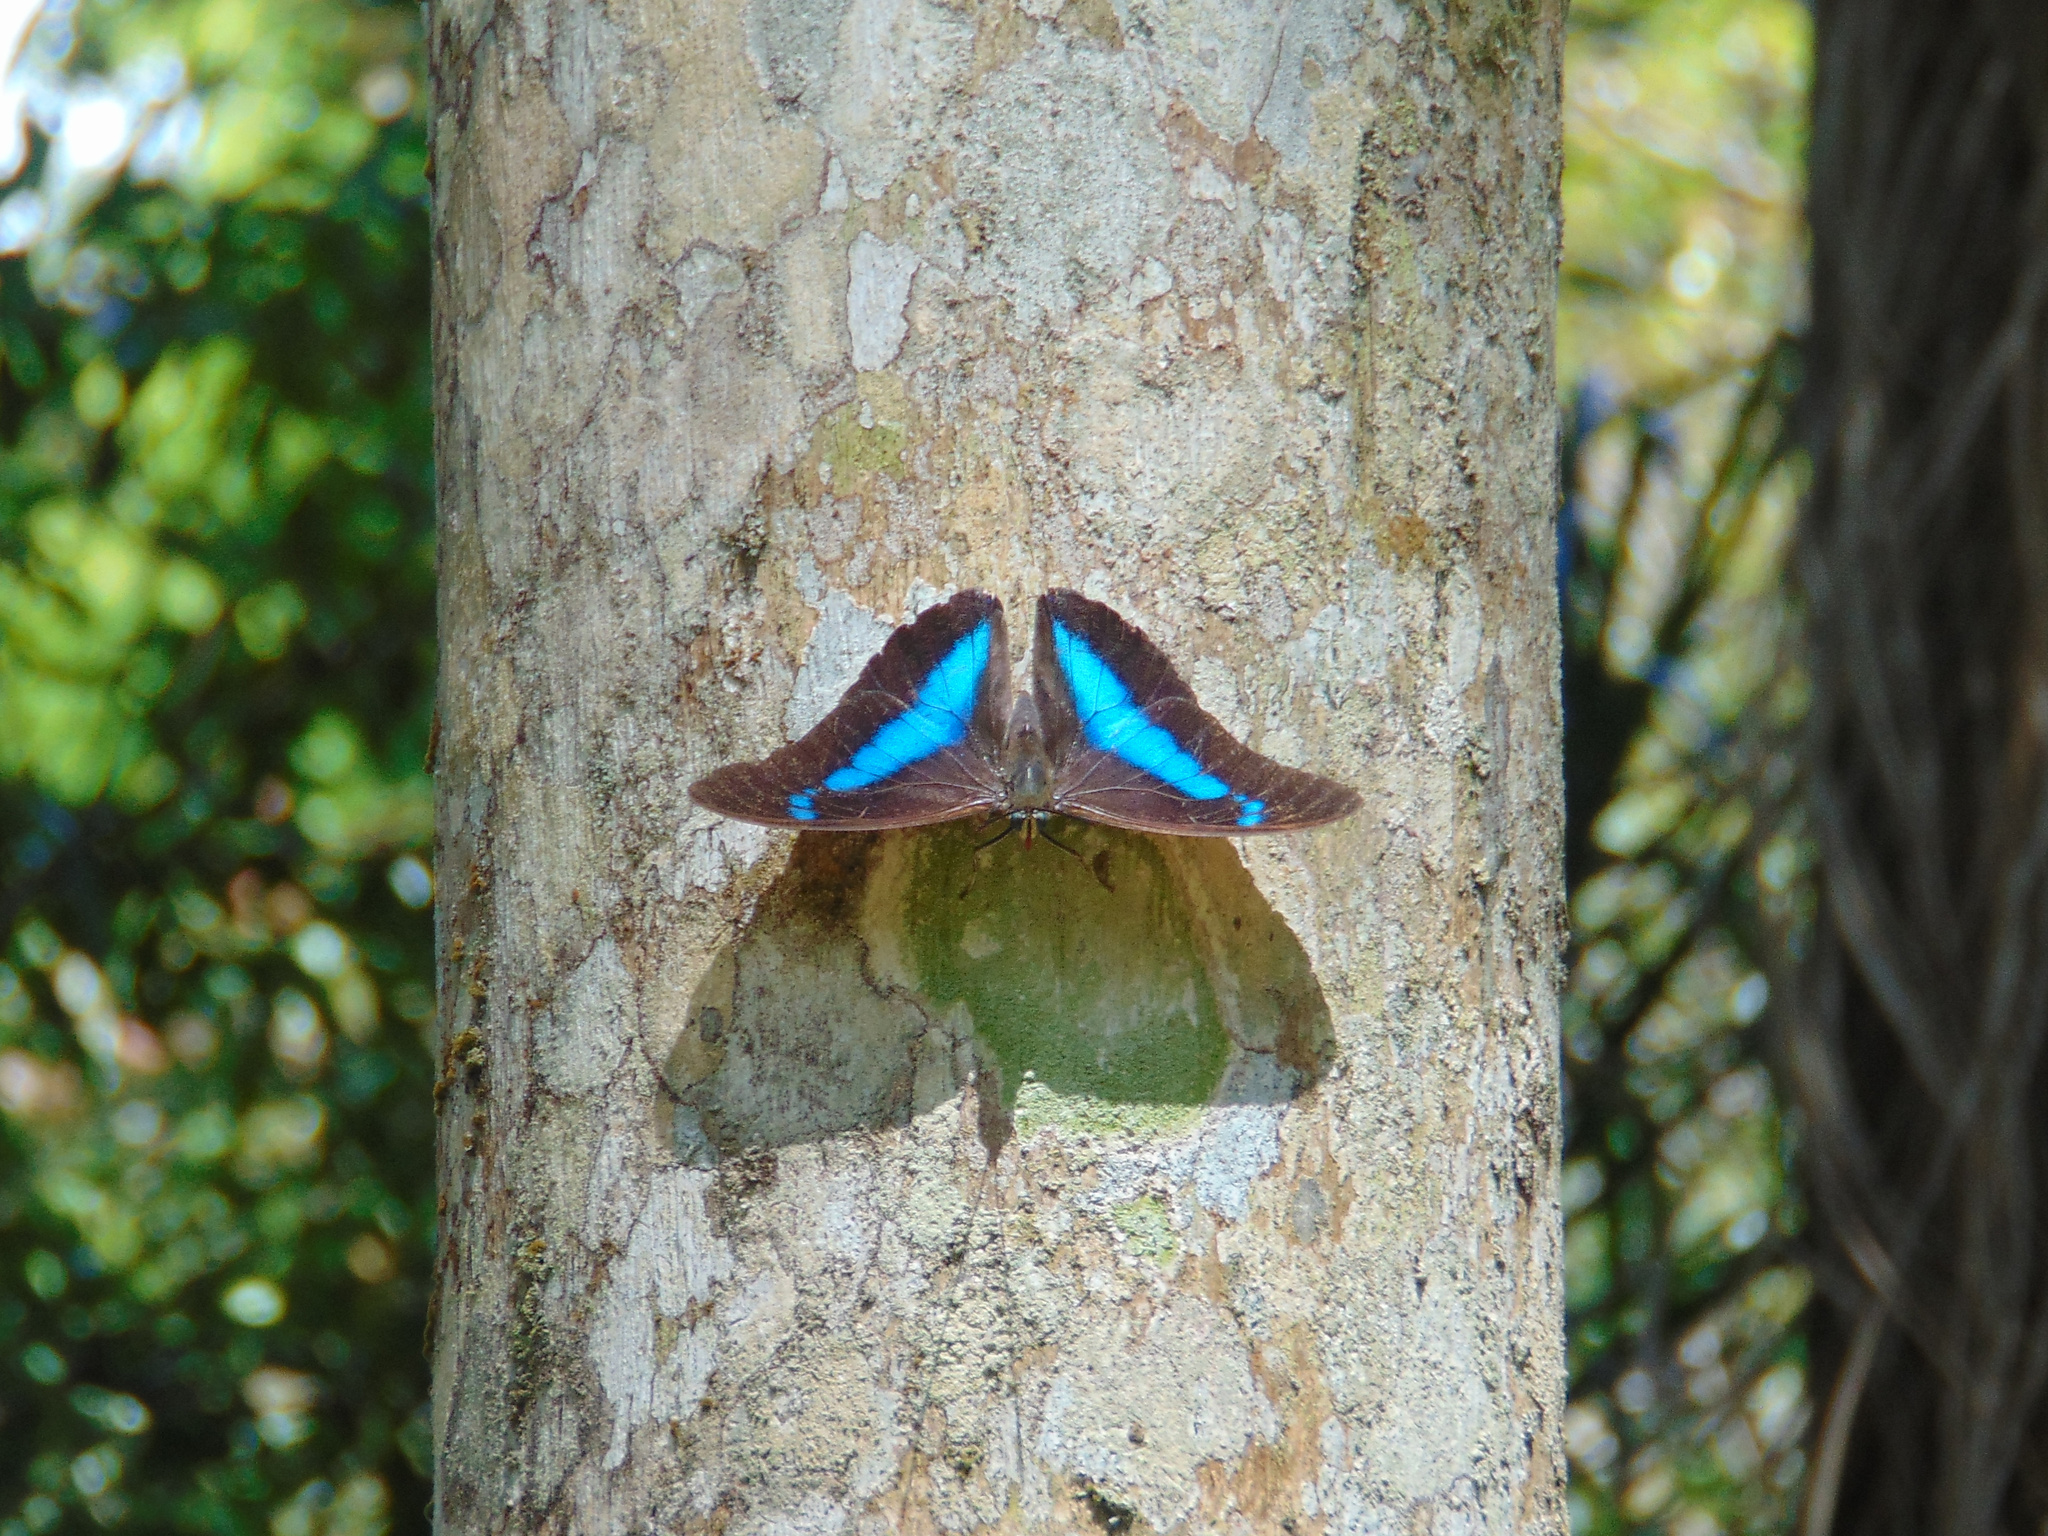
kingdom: Animalia
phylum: Arthropoda
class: Insecta
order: Lepidoptera
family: Nymphalidae
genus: Prepona
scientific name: Prepona Archaeoprepona chalciope
